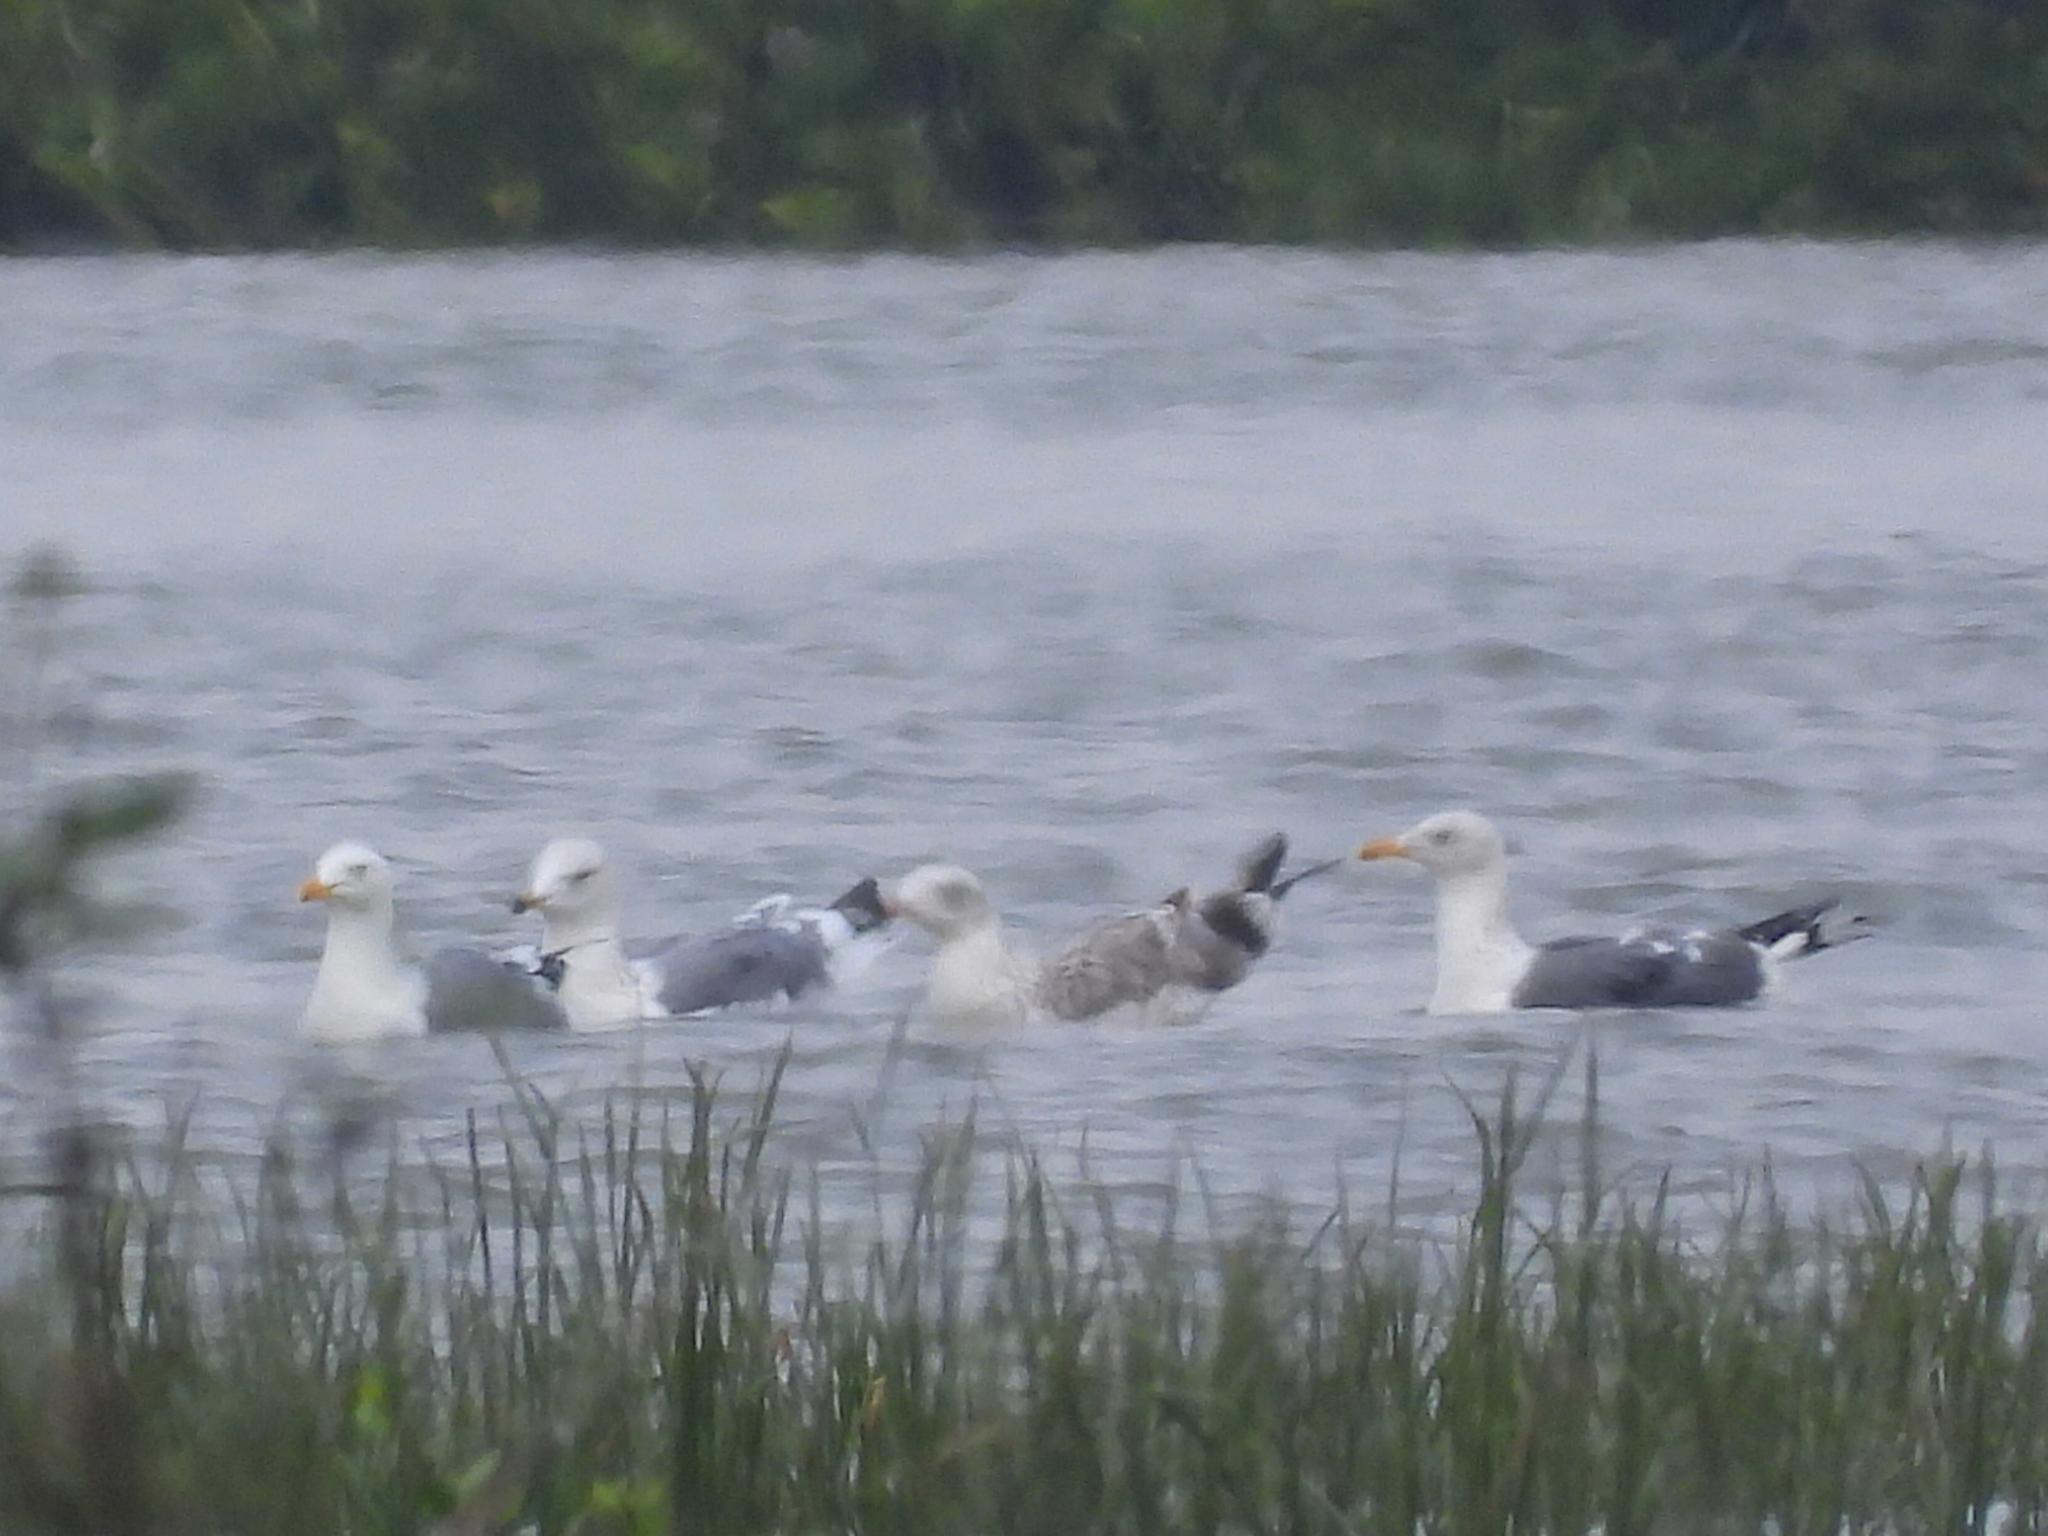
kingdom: Animalia
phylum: Chordata
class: Aves
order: Charadriiformes
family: Laridae
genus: Larus
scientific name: Larus fuscus
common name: Lesser black-backed gull
